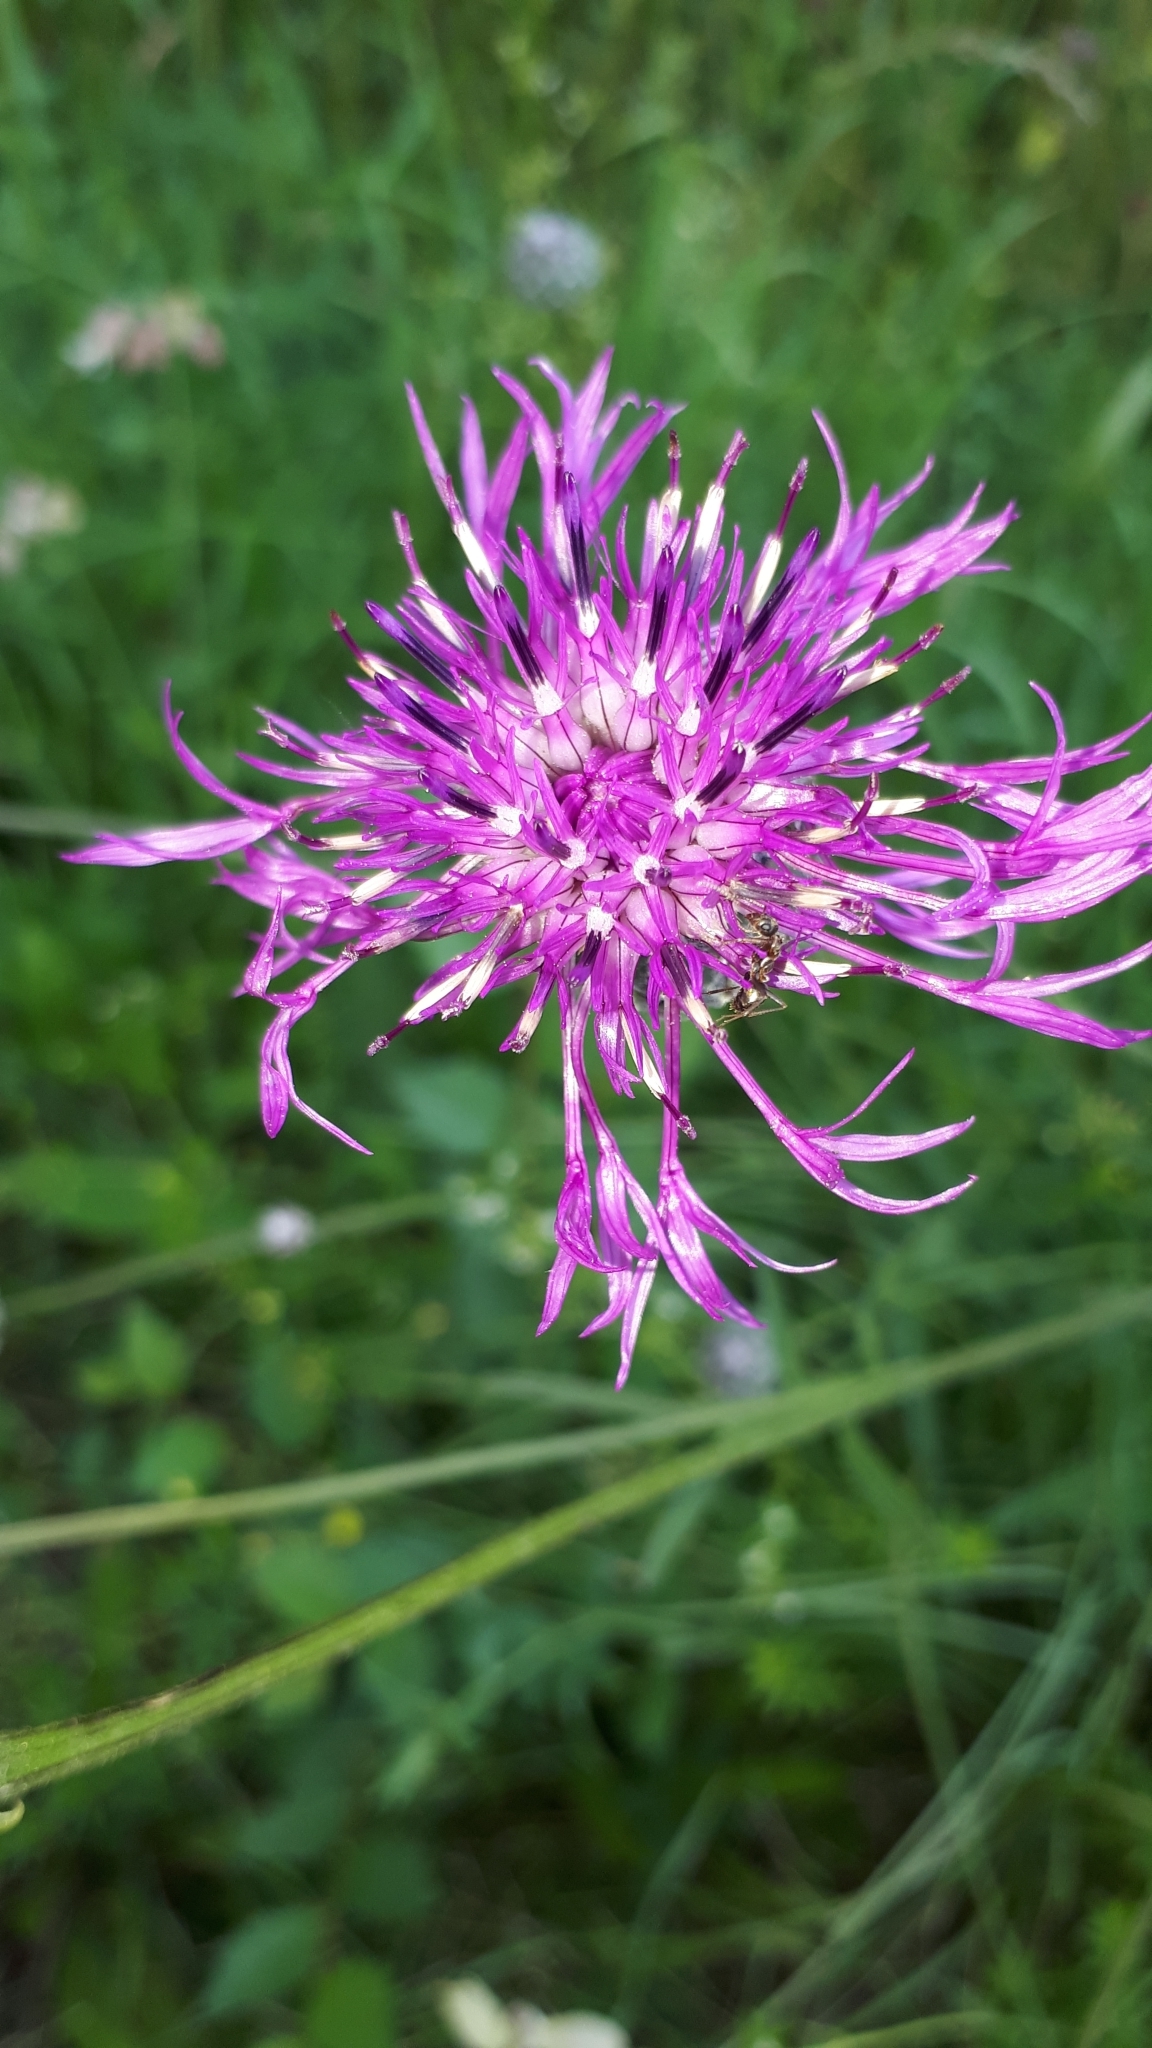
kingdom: Plantae
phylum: Tracheophyta
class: Magnoliopsida
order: Asterales
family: Asteraceae
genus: Centaurea
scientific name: Centaurea scabiosa
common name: Greater knapweed
